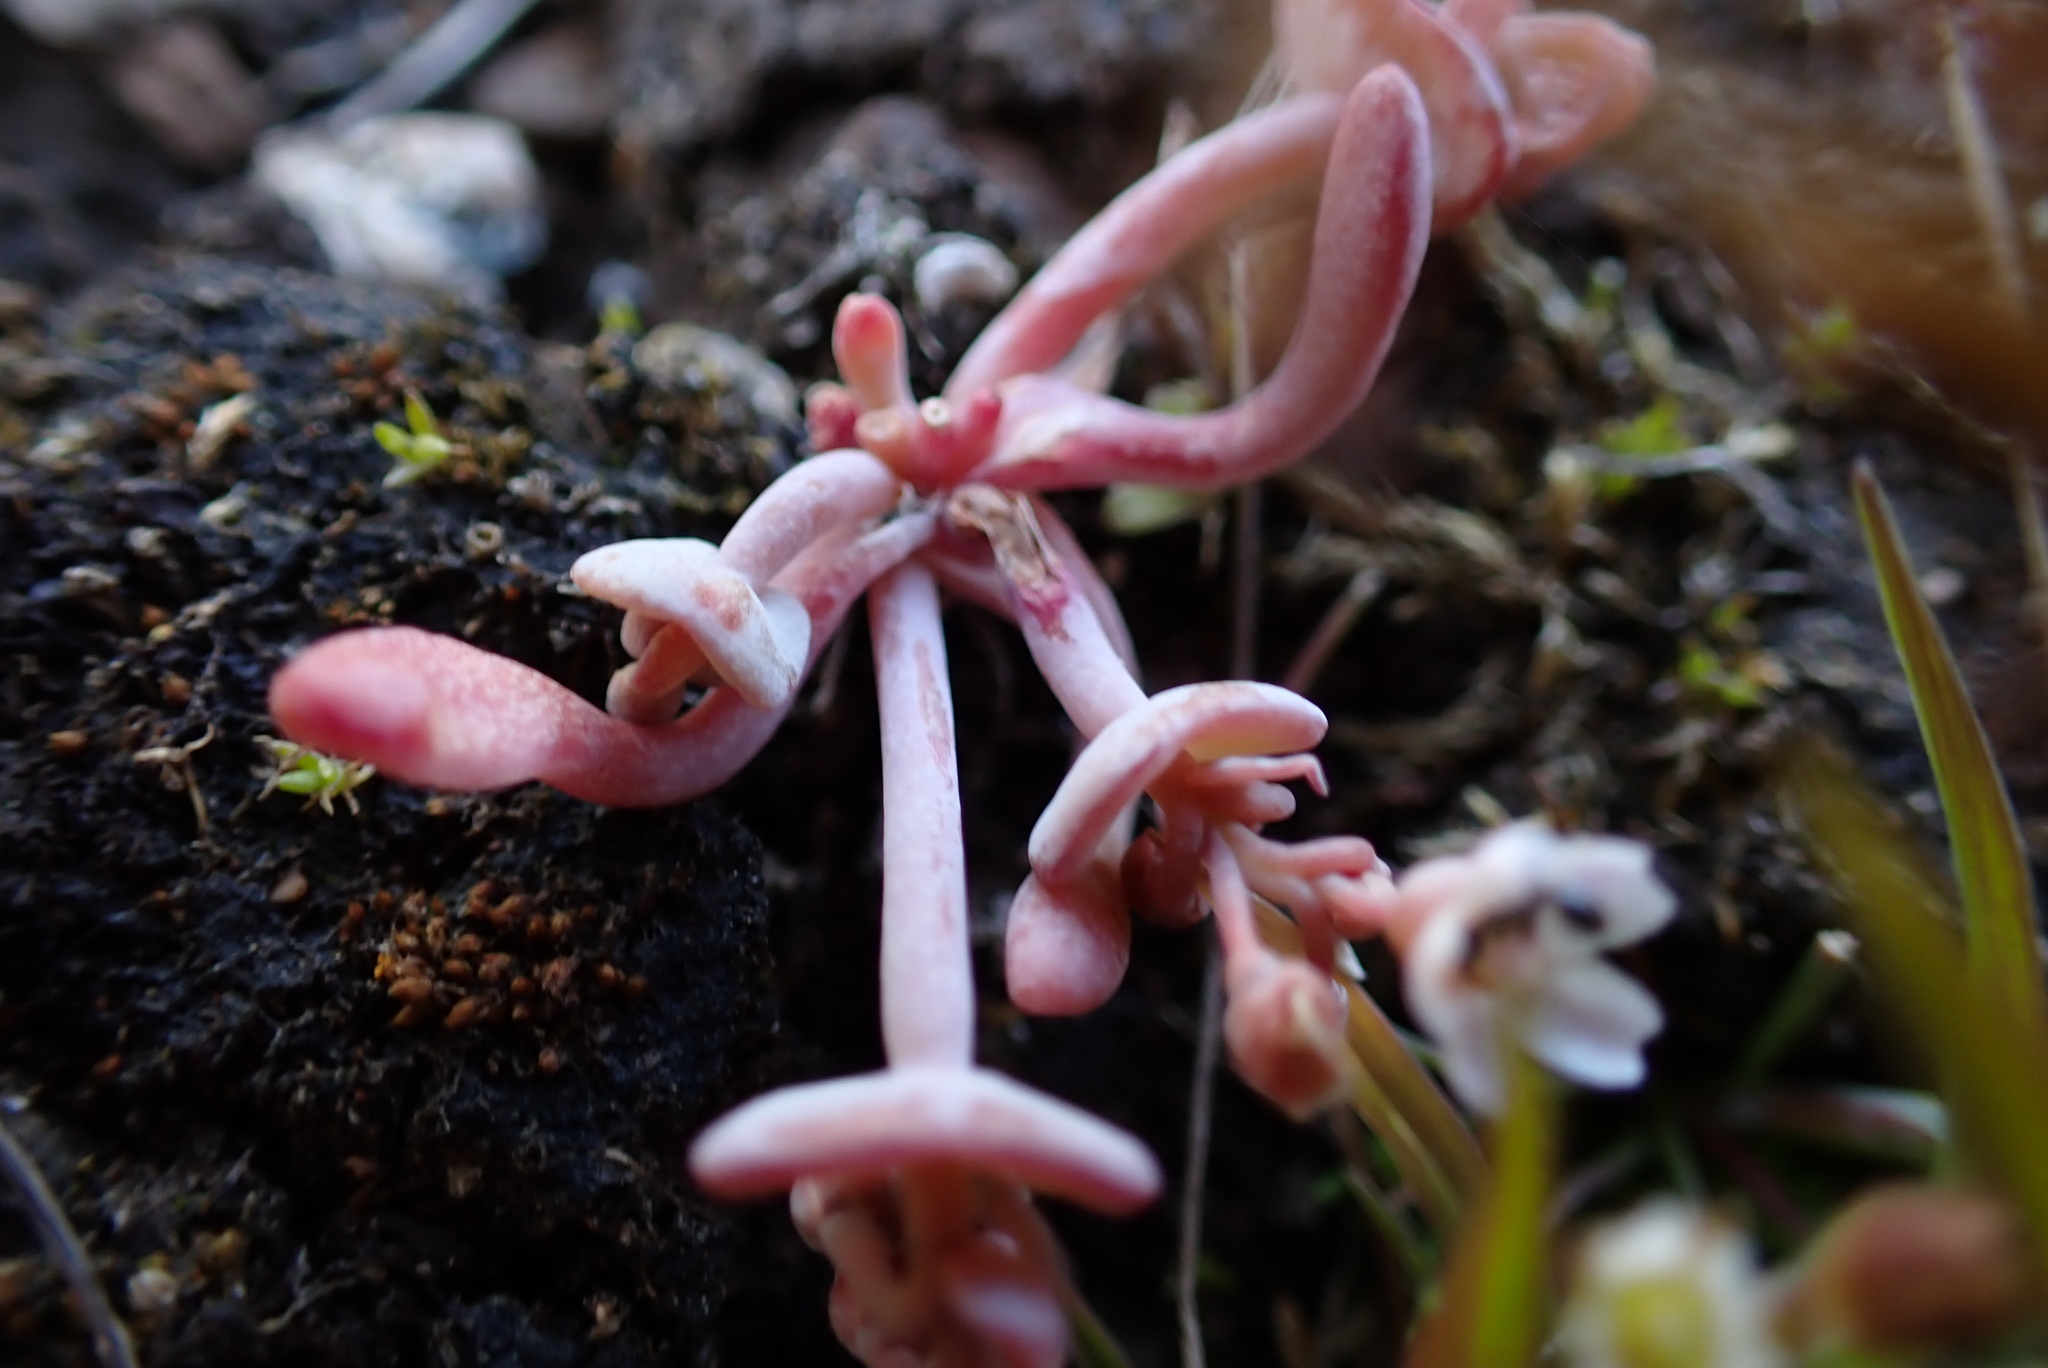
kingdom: Plantae
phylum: Tracheophyta
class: Magnoliopsida
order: Caryophyllales
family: Montiaceae
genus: Claytonia
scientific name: Claytonia exigua
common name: Pale spring beauty
